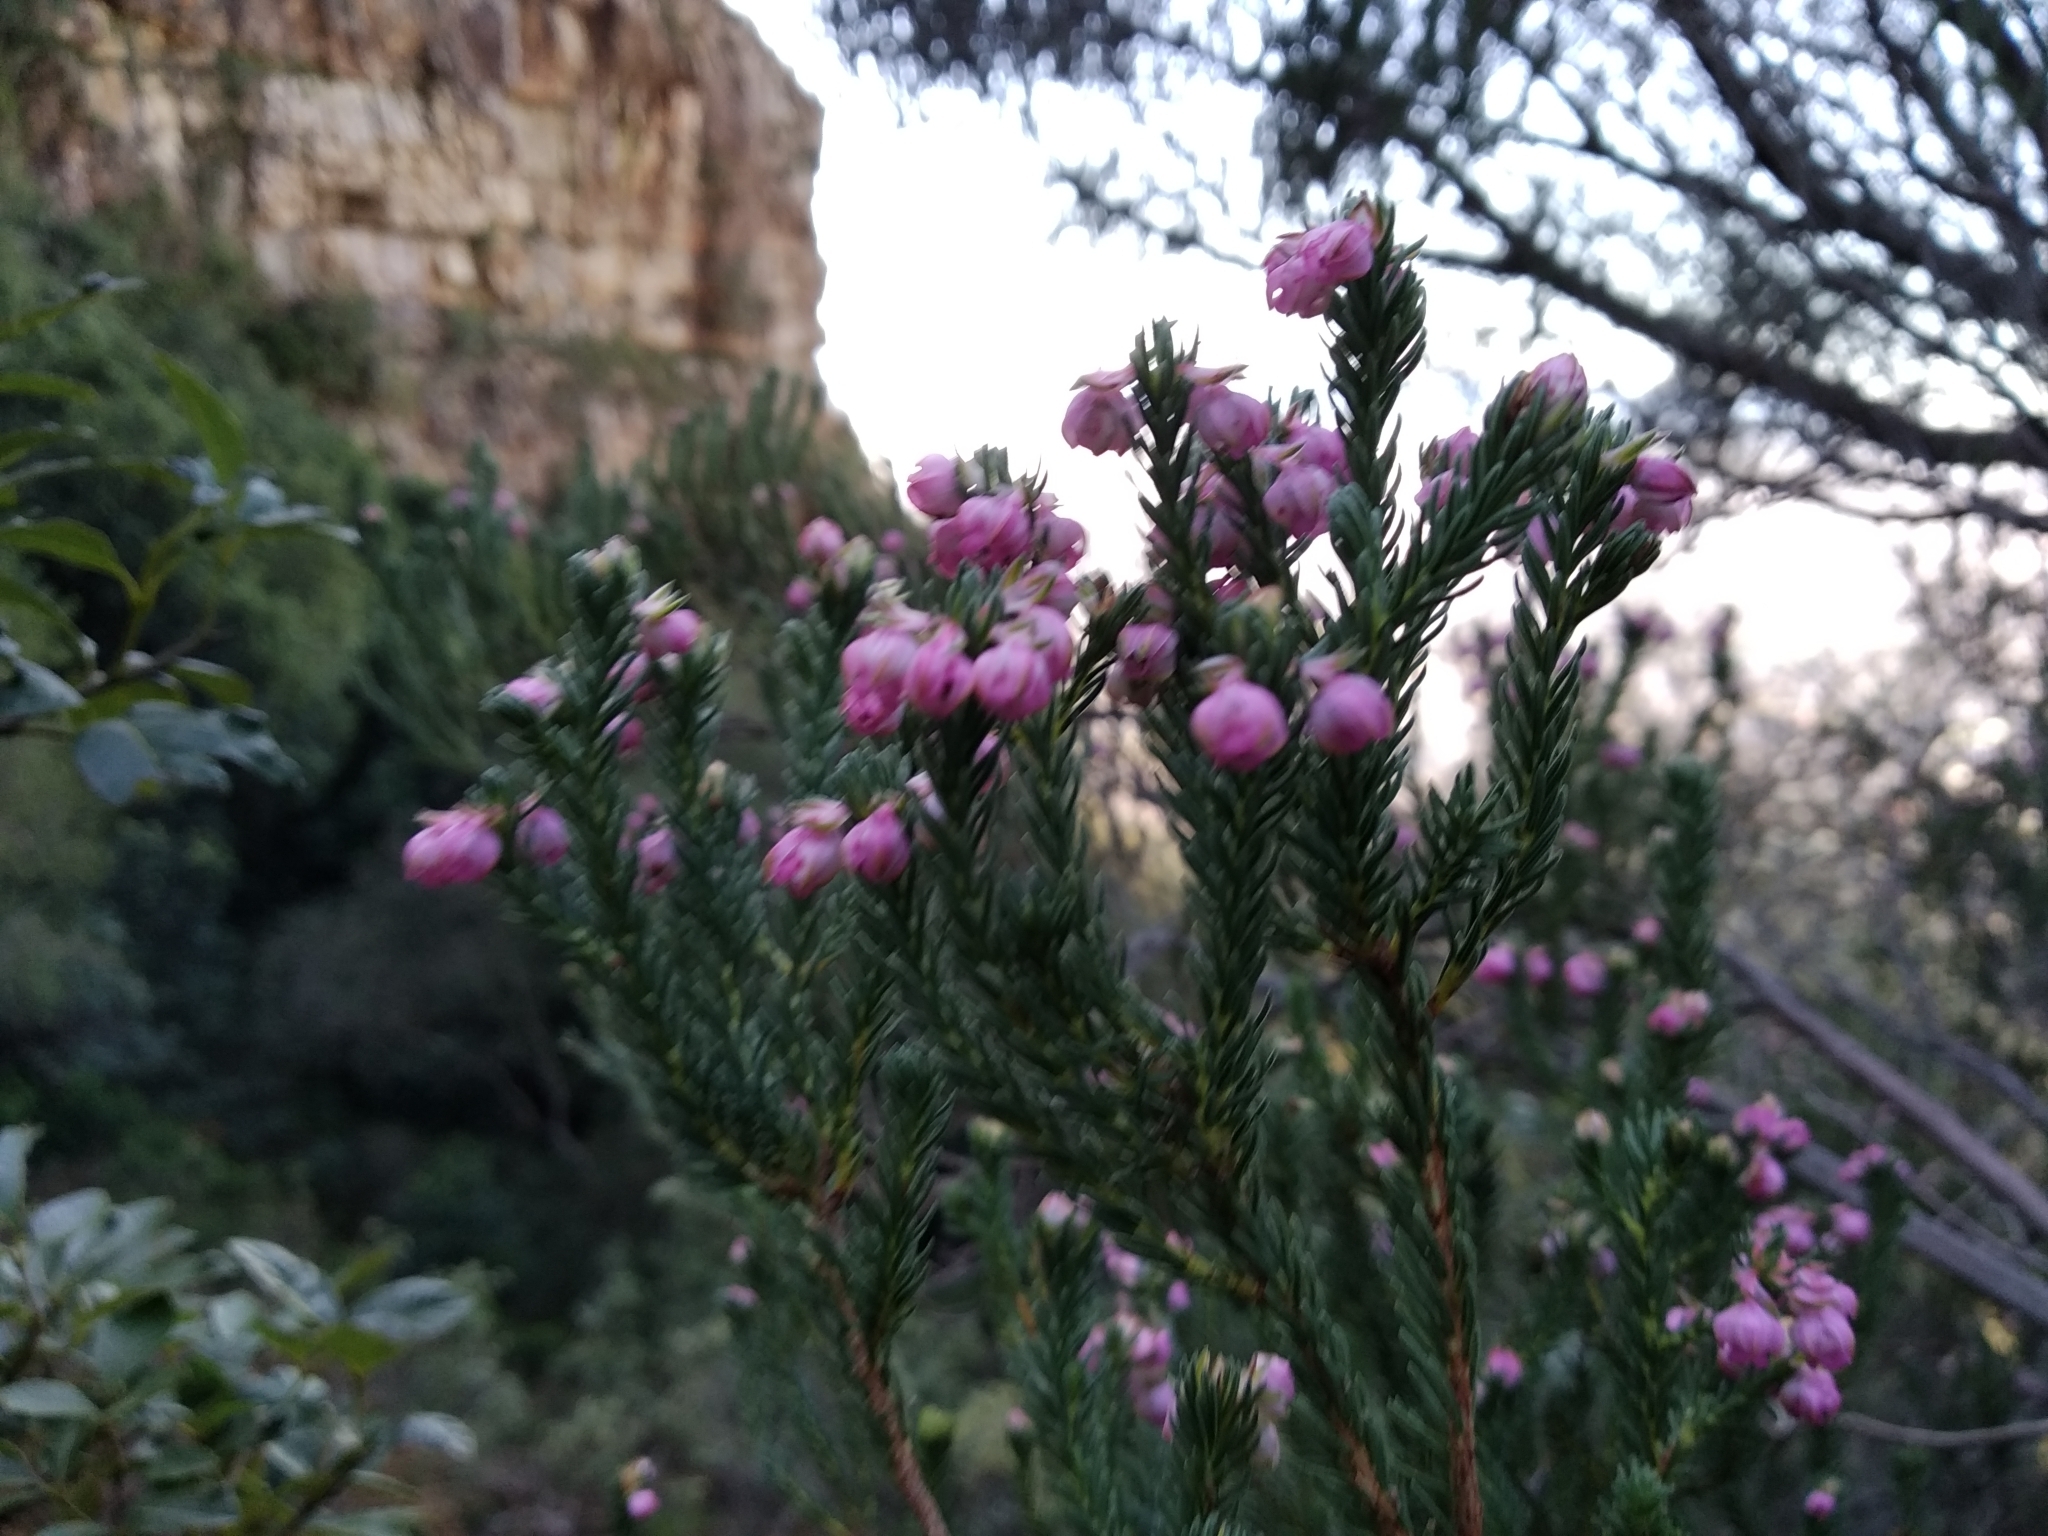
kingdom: Plantae
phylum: Tracheophyta
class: Magnoliopsida
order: Ericales
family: Ericaceae
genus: Erica
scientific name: Erica baccans
